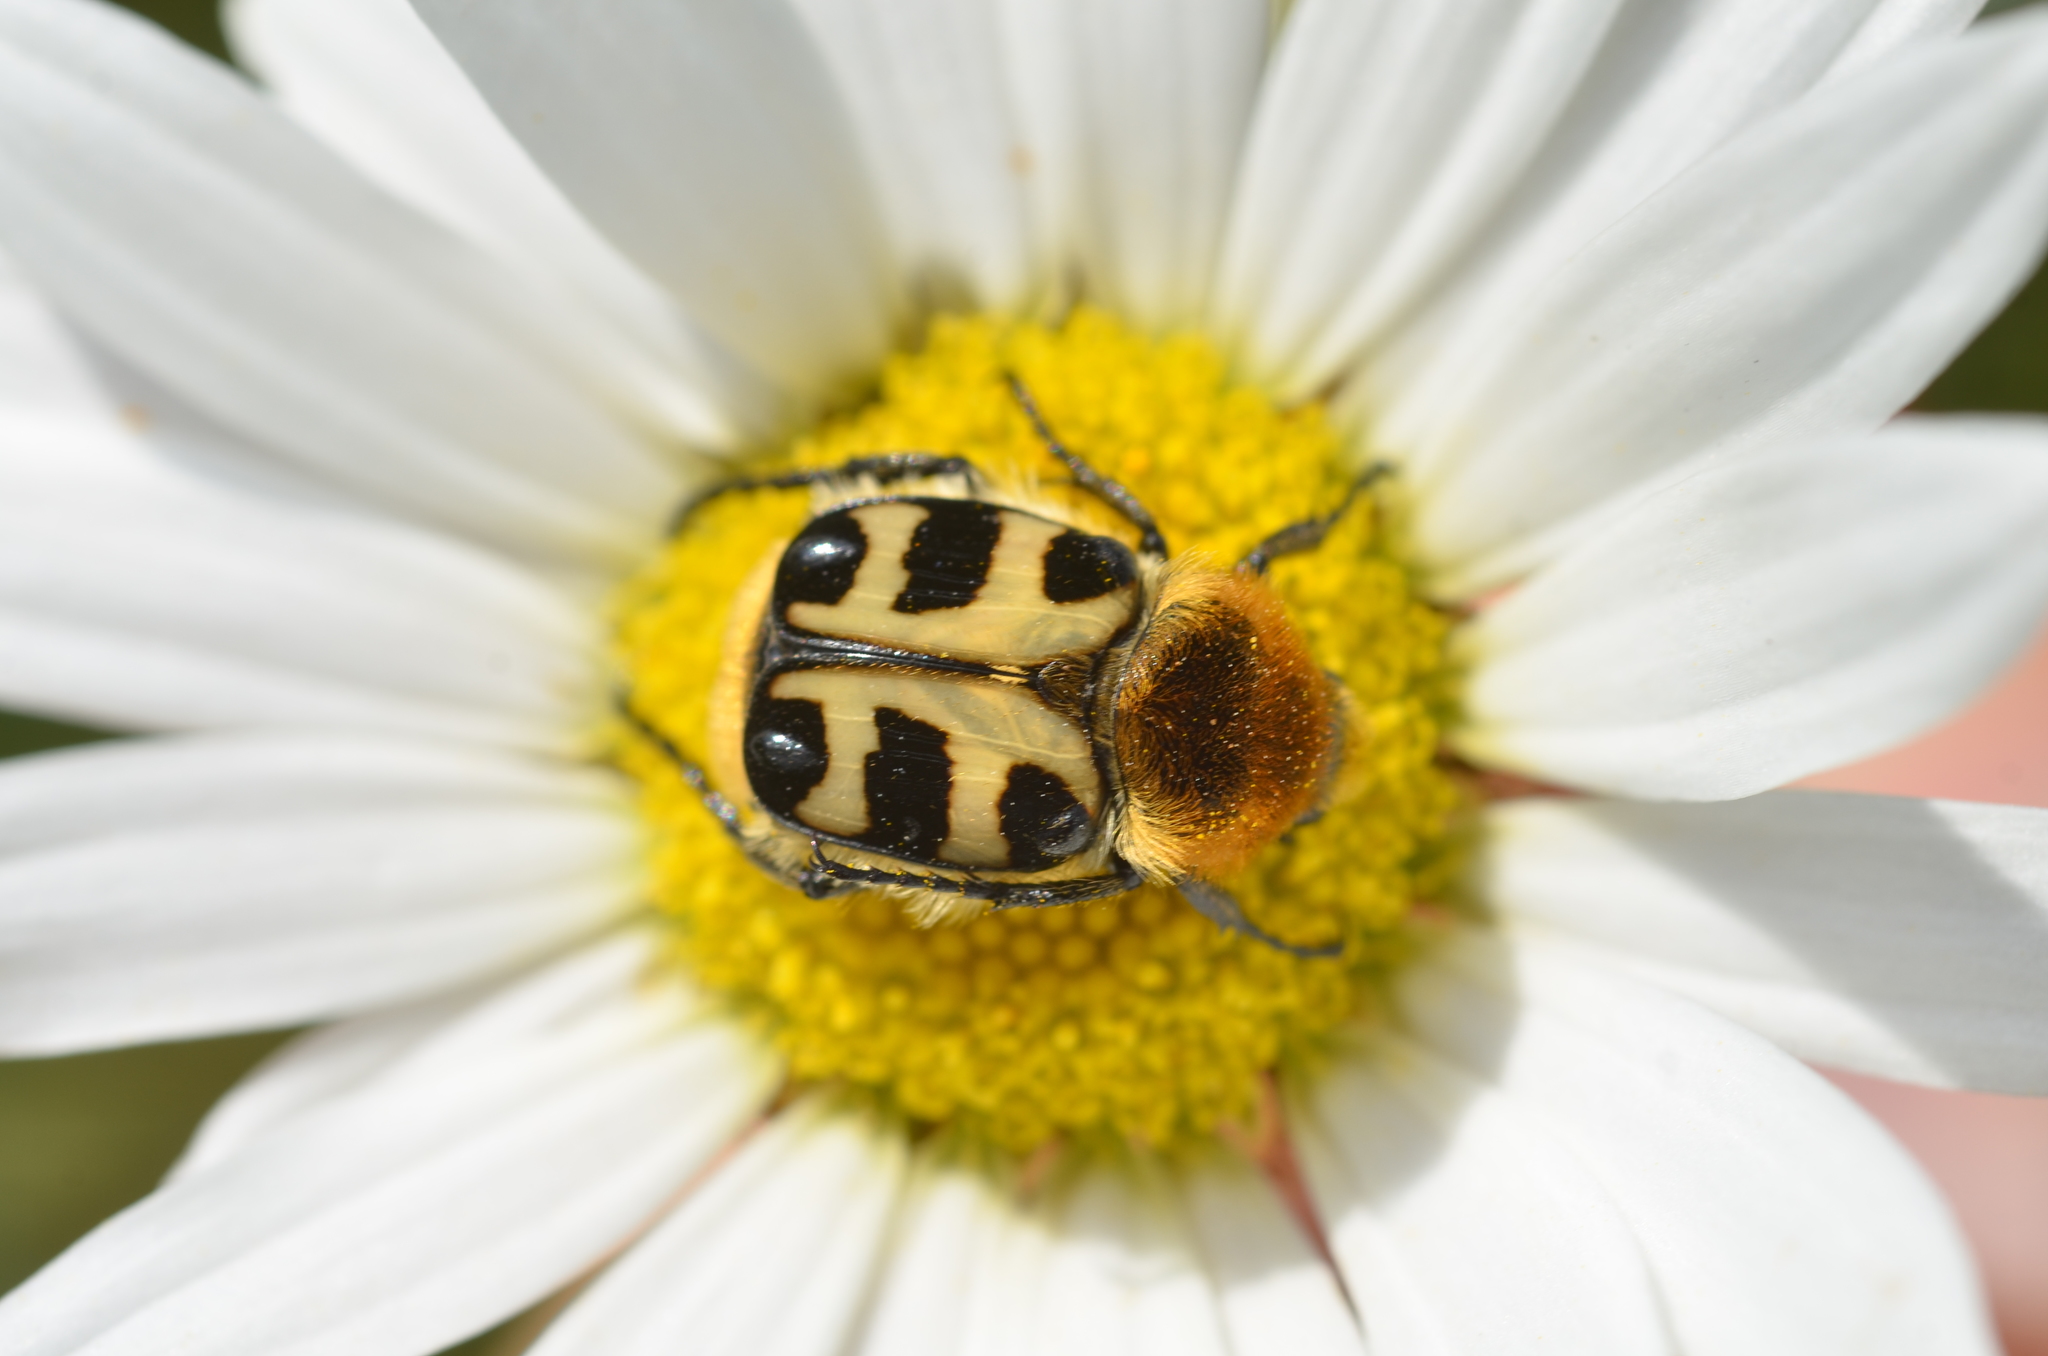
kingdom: Animalia
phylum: Arthropoda
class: Insecta
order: Coleoptera
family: Scarabaeidae
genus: Trichius
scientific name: Trichius gallicus
